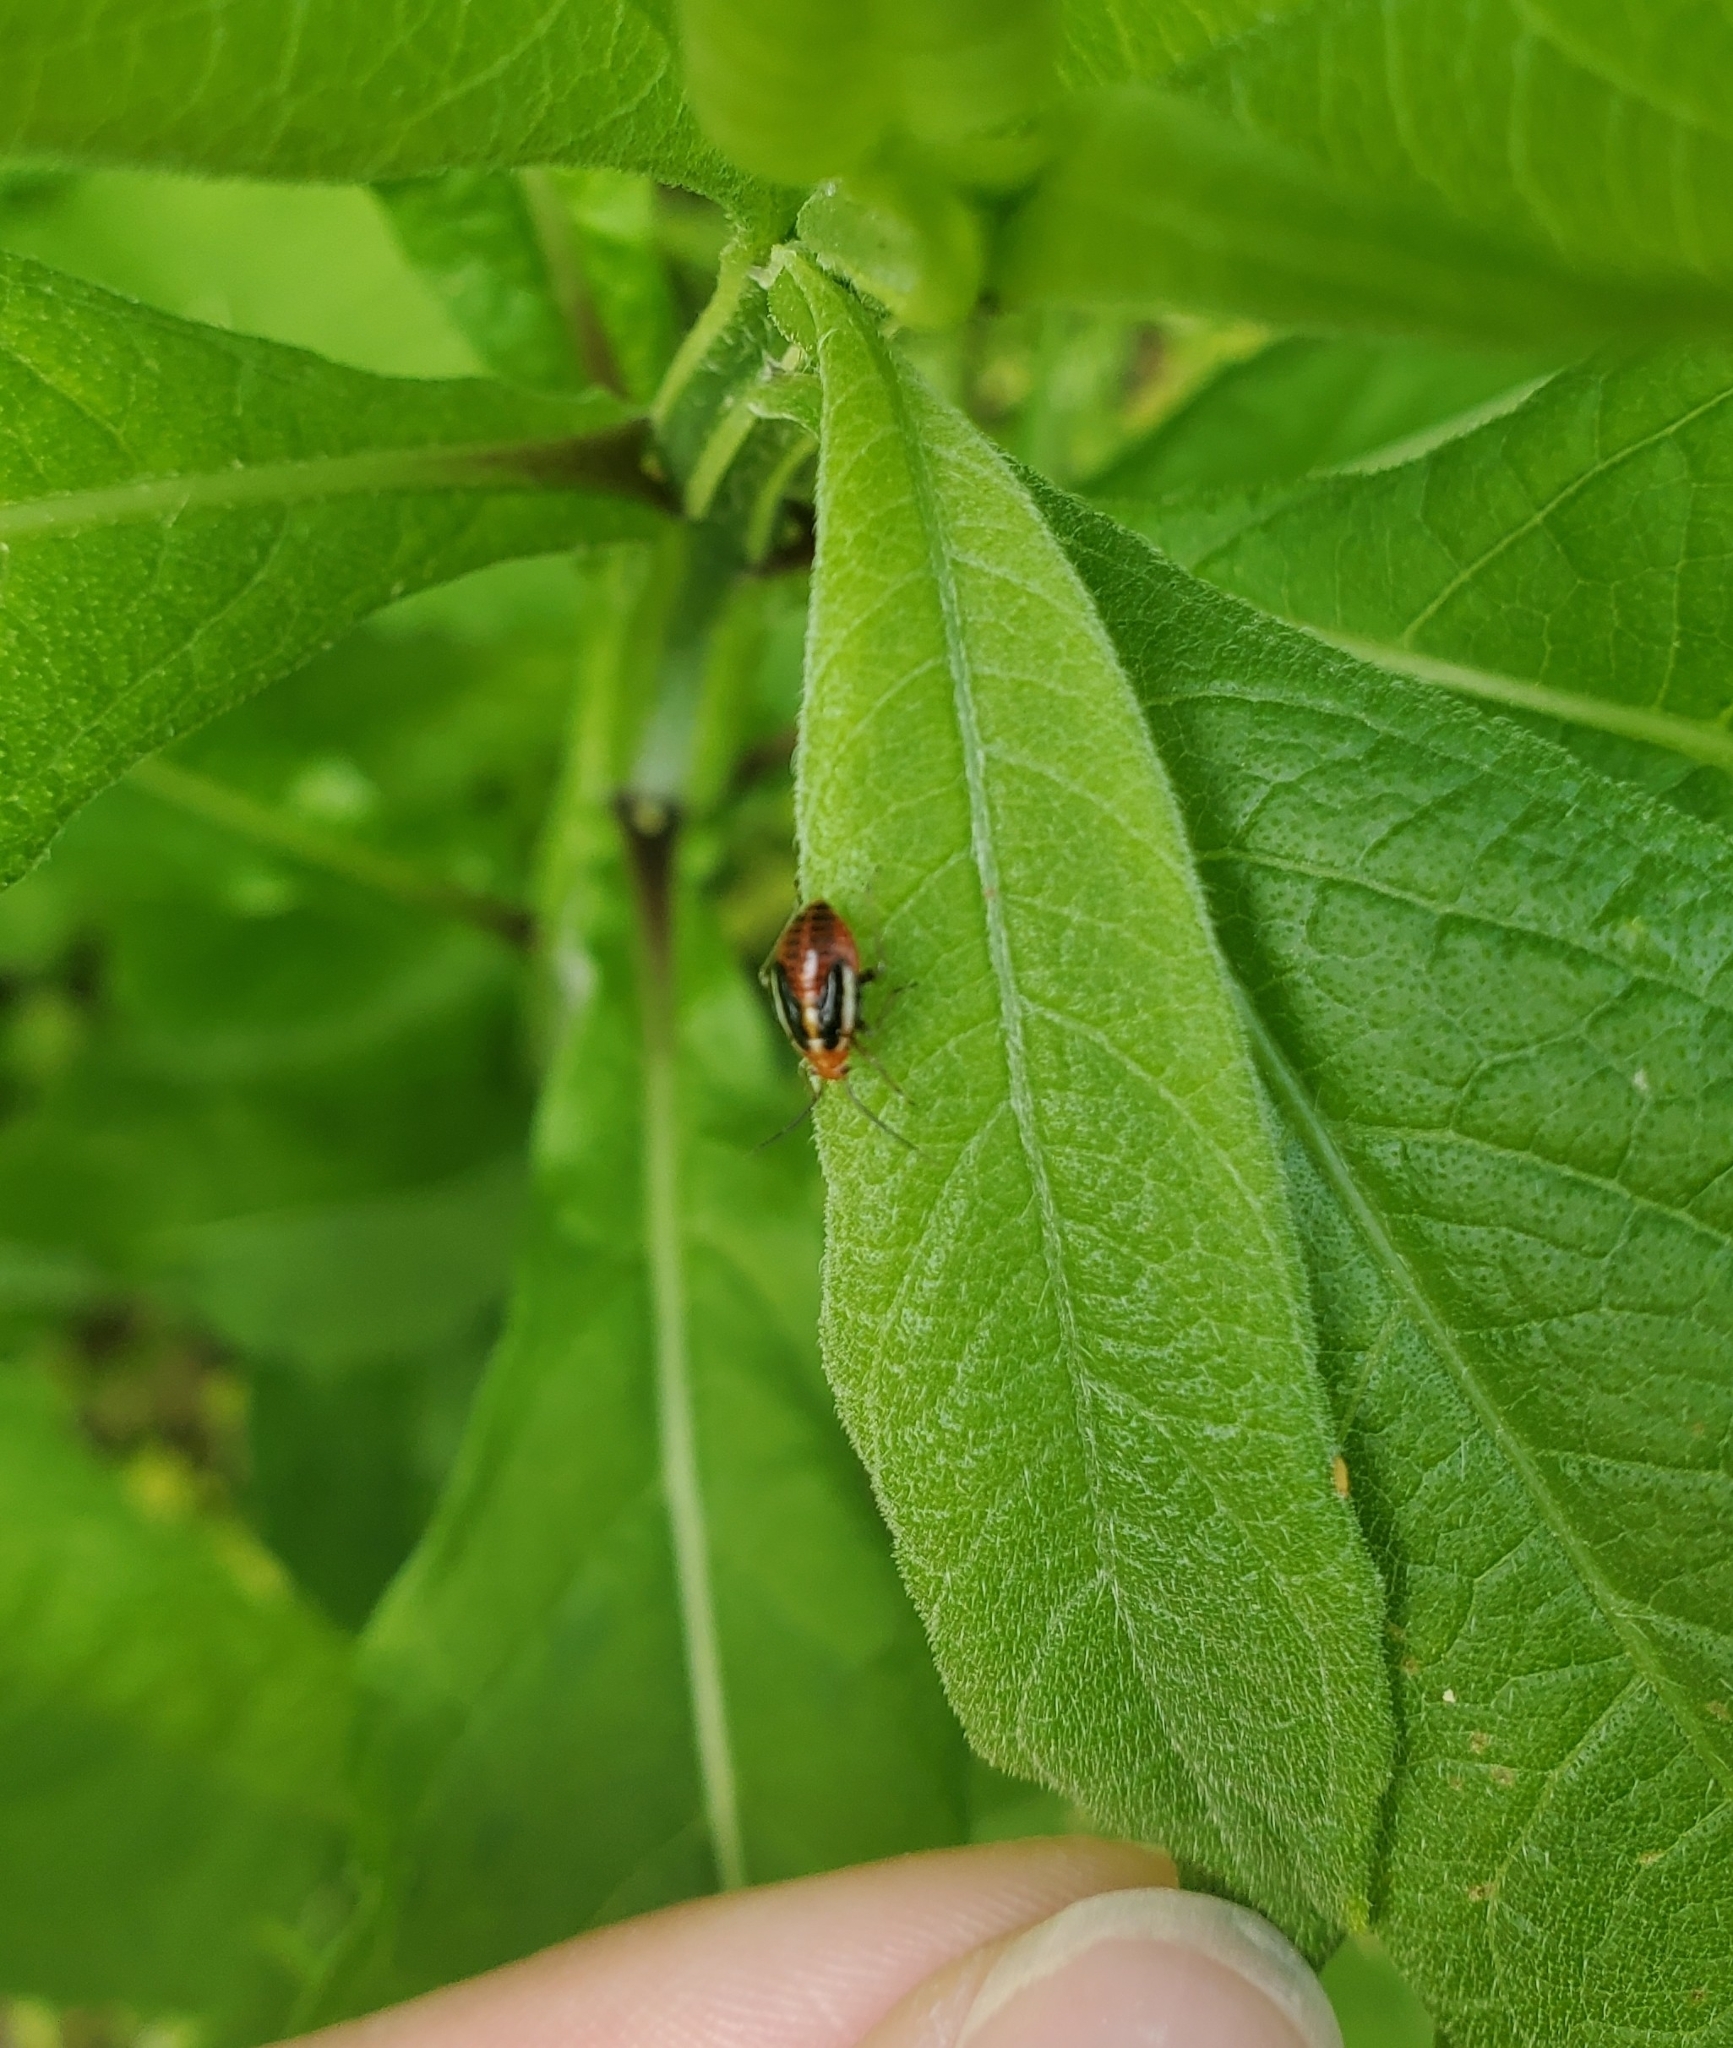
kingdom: Animalia
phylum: Arthropoda
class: Insecta
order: Hemiptera
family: Miridae
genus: Poecilocapsus
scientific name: Poecilocapsus lineatus
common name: Four-lined plant bug
